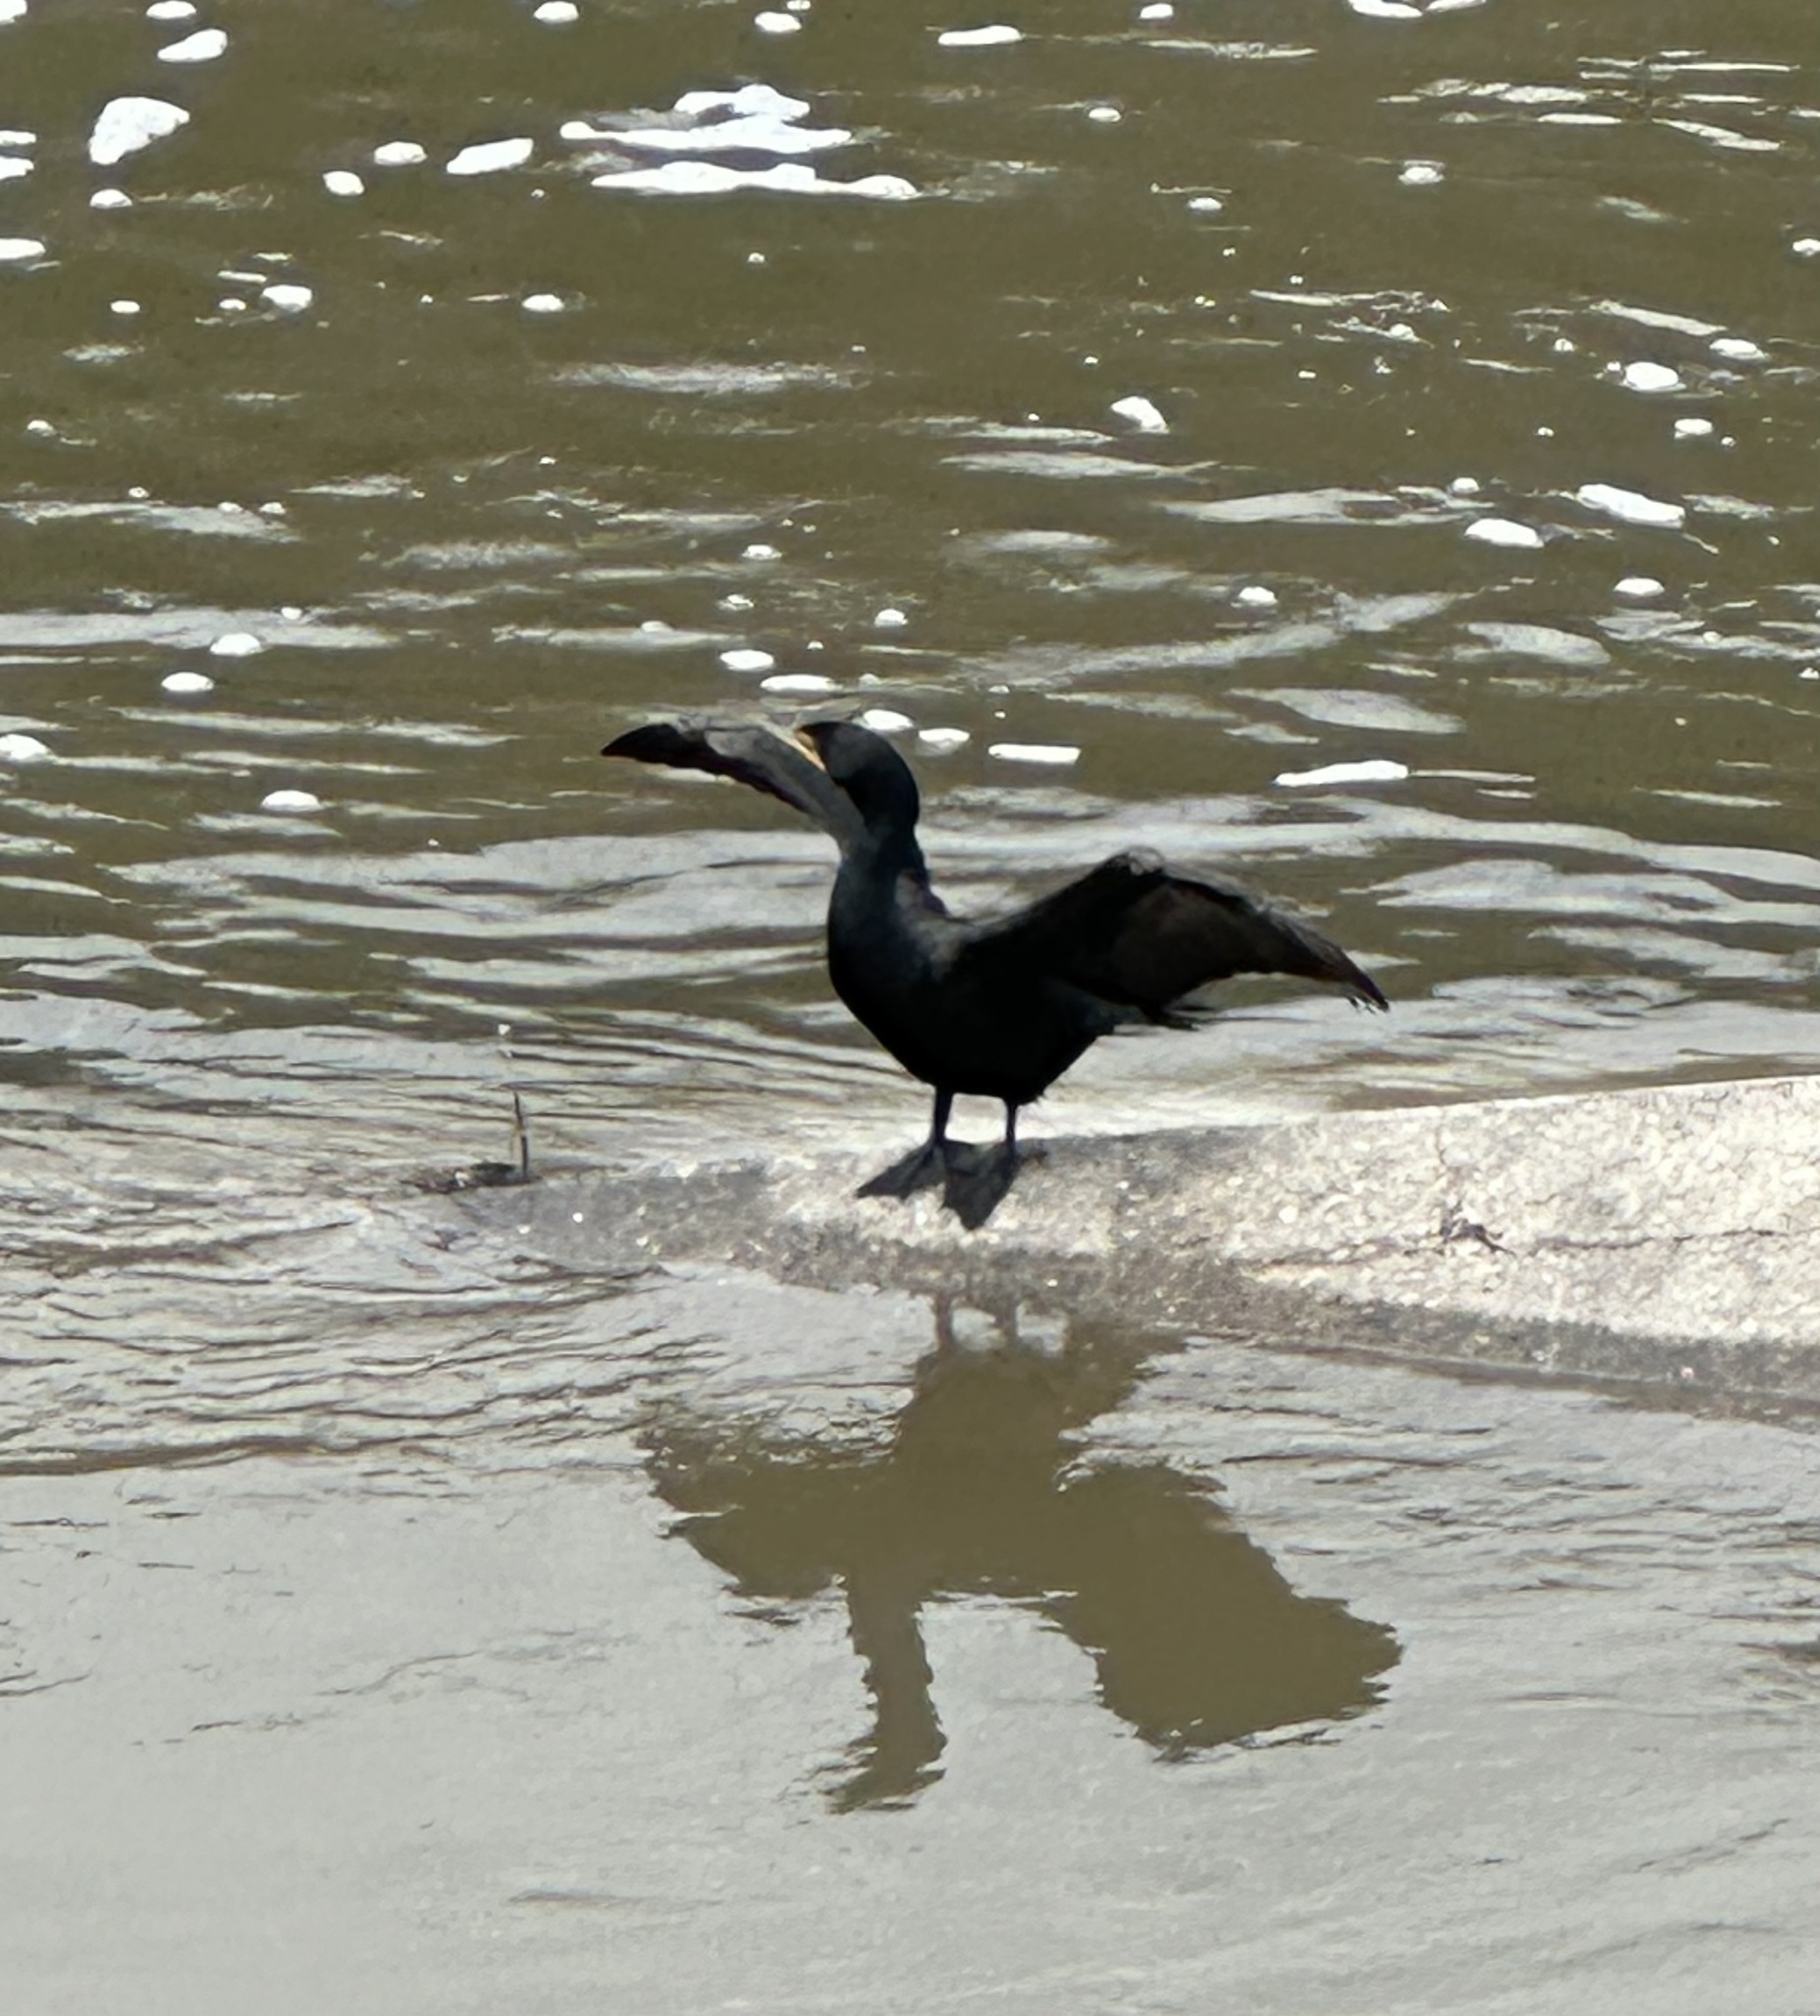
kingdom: Animalia
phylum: Chordata
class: Aves
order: Suliformes
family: Phalacrocoracidae
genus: Phalacrocorax
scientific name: Phalacrocorax auritus
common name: Double-crested cormorant
